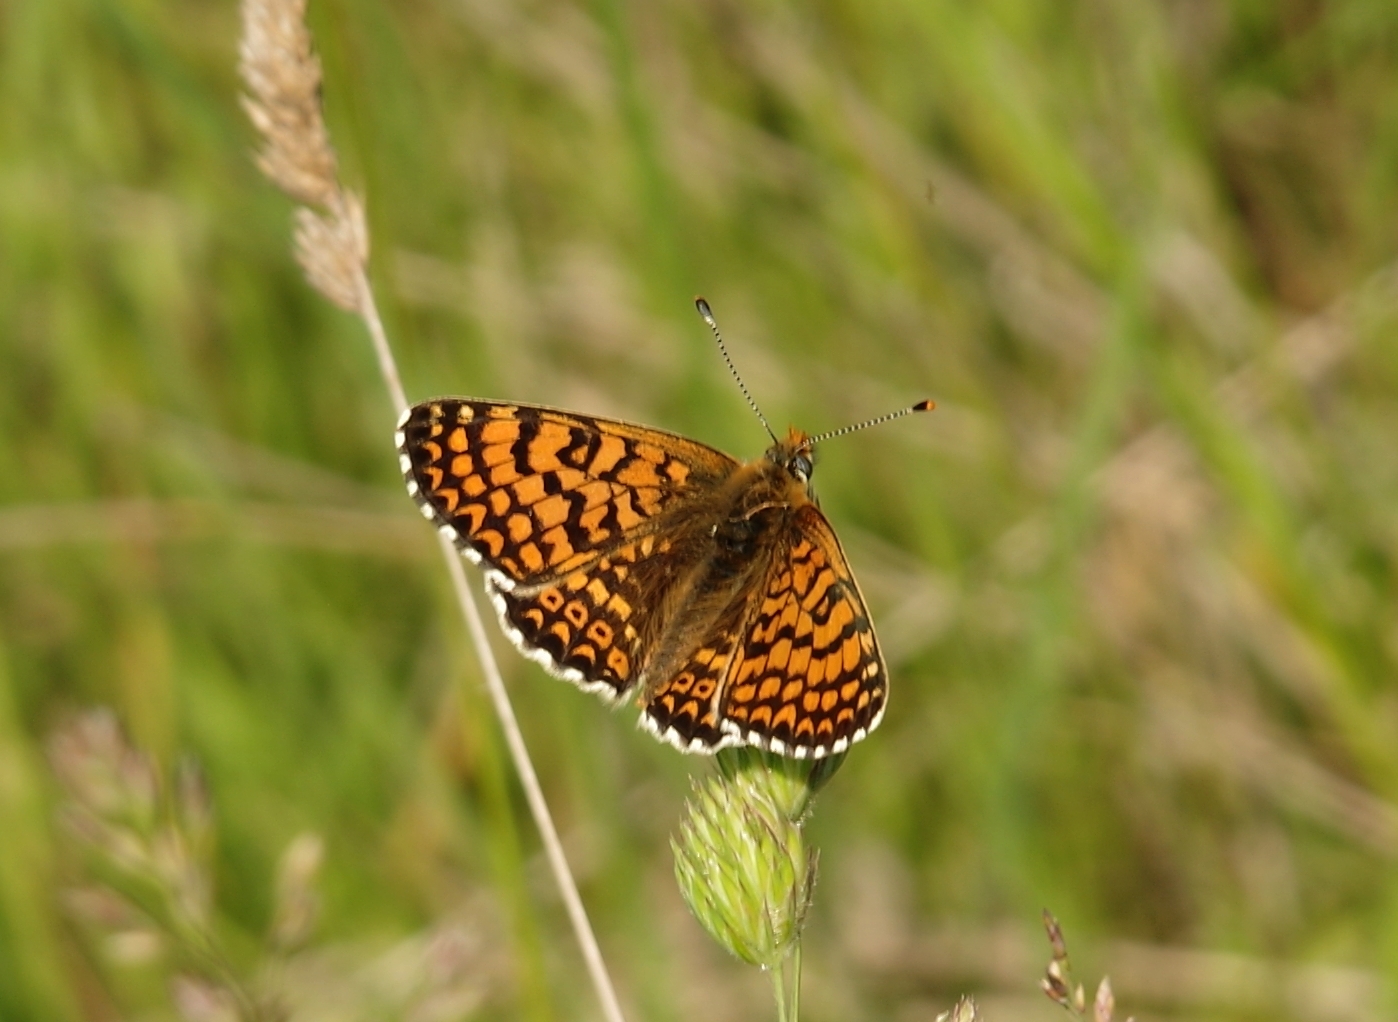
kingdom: Animalia
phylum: Arthropoda
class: Insecta
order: Lepidoptera
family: Nymphalidae
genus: Melitaea
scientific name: Melitaea cinxia
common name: Glanville fritillary
